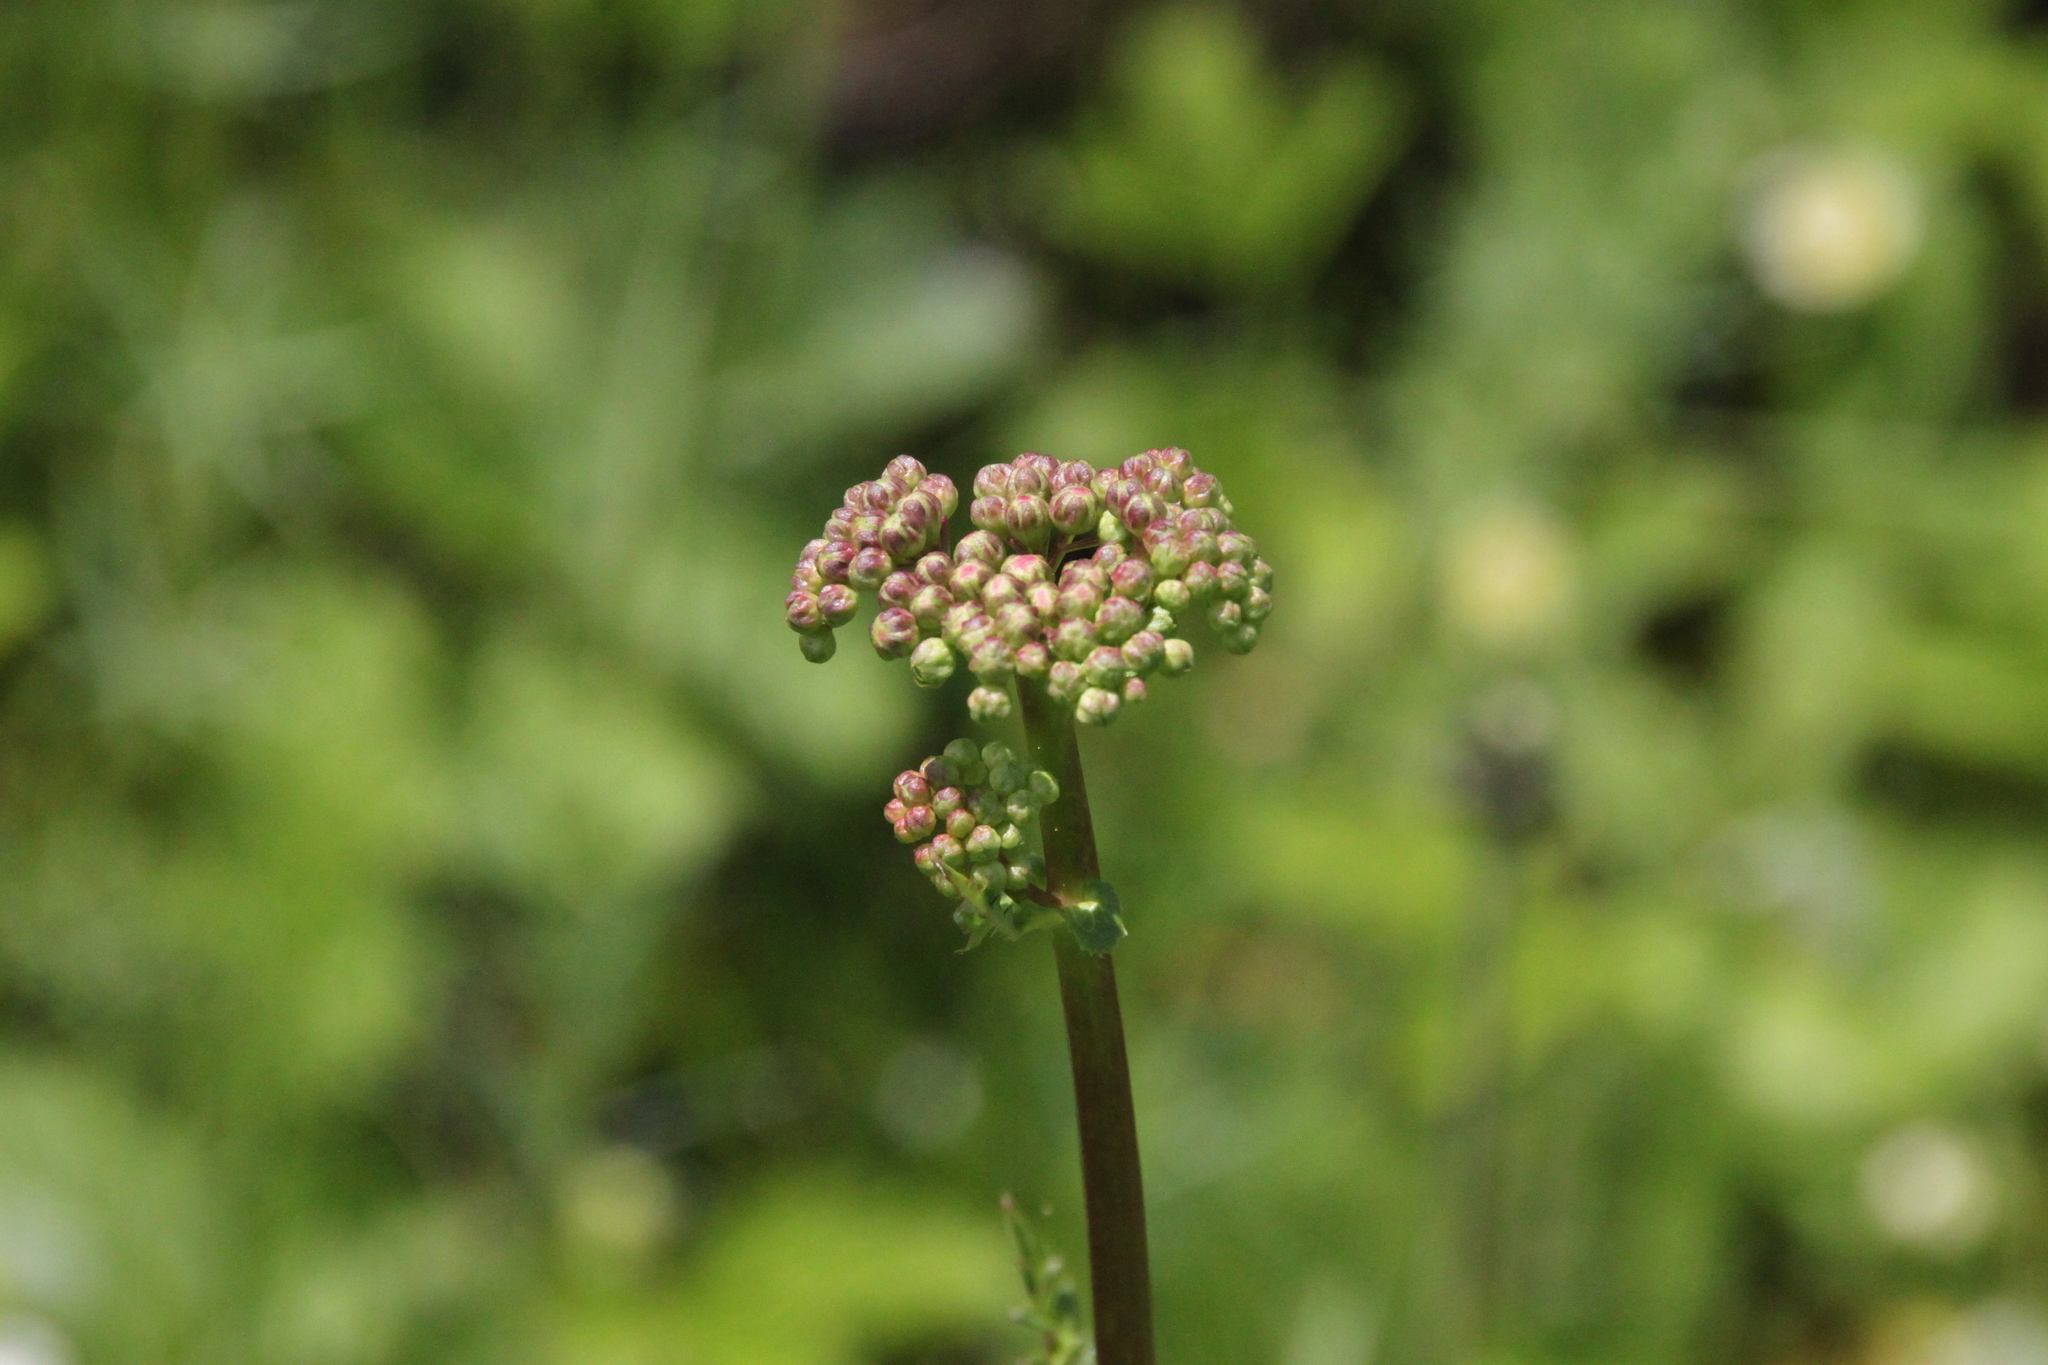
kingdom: Plantae
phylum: Tracheophyta
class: Magnoliopsida
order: Rosales
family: Rosaceae
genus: Filipendula
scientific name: Filipendula vulgaris
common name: Dropwort
